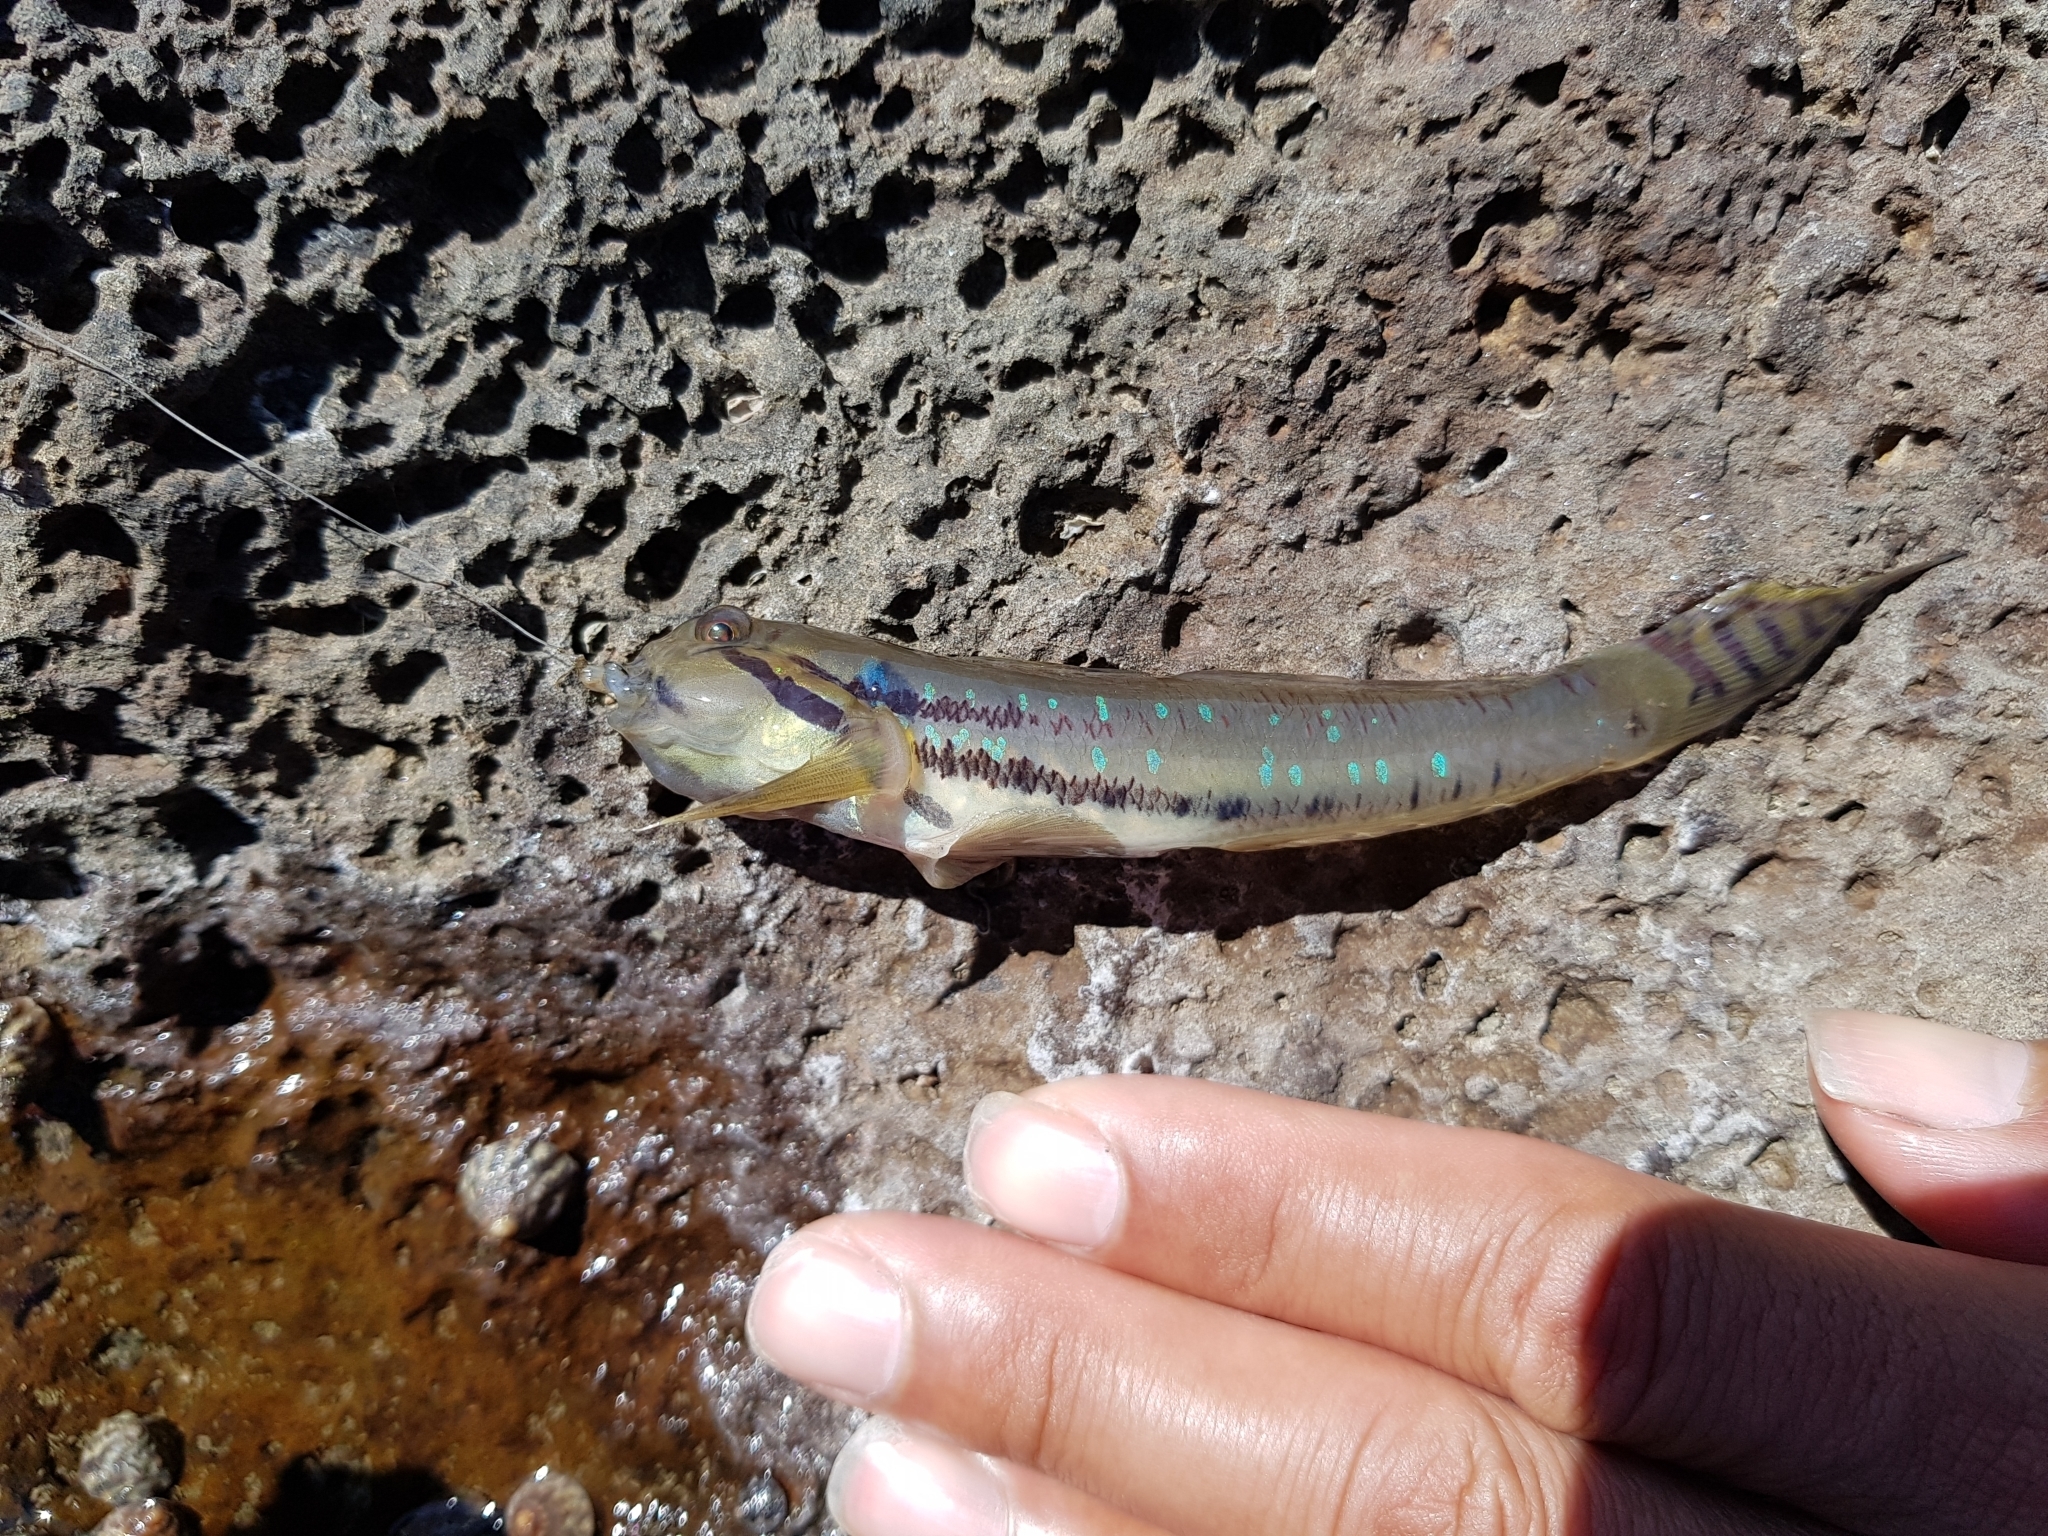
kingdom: Animalia
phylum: Chordata
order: Perciformes
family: Gobiidae
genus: Arenigobius
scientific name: Arenigobius bifrenatus
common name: Bridled goby
